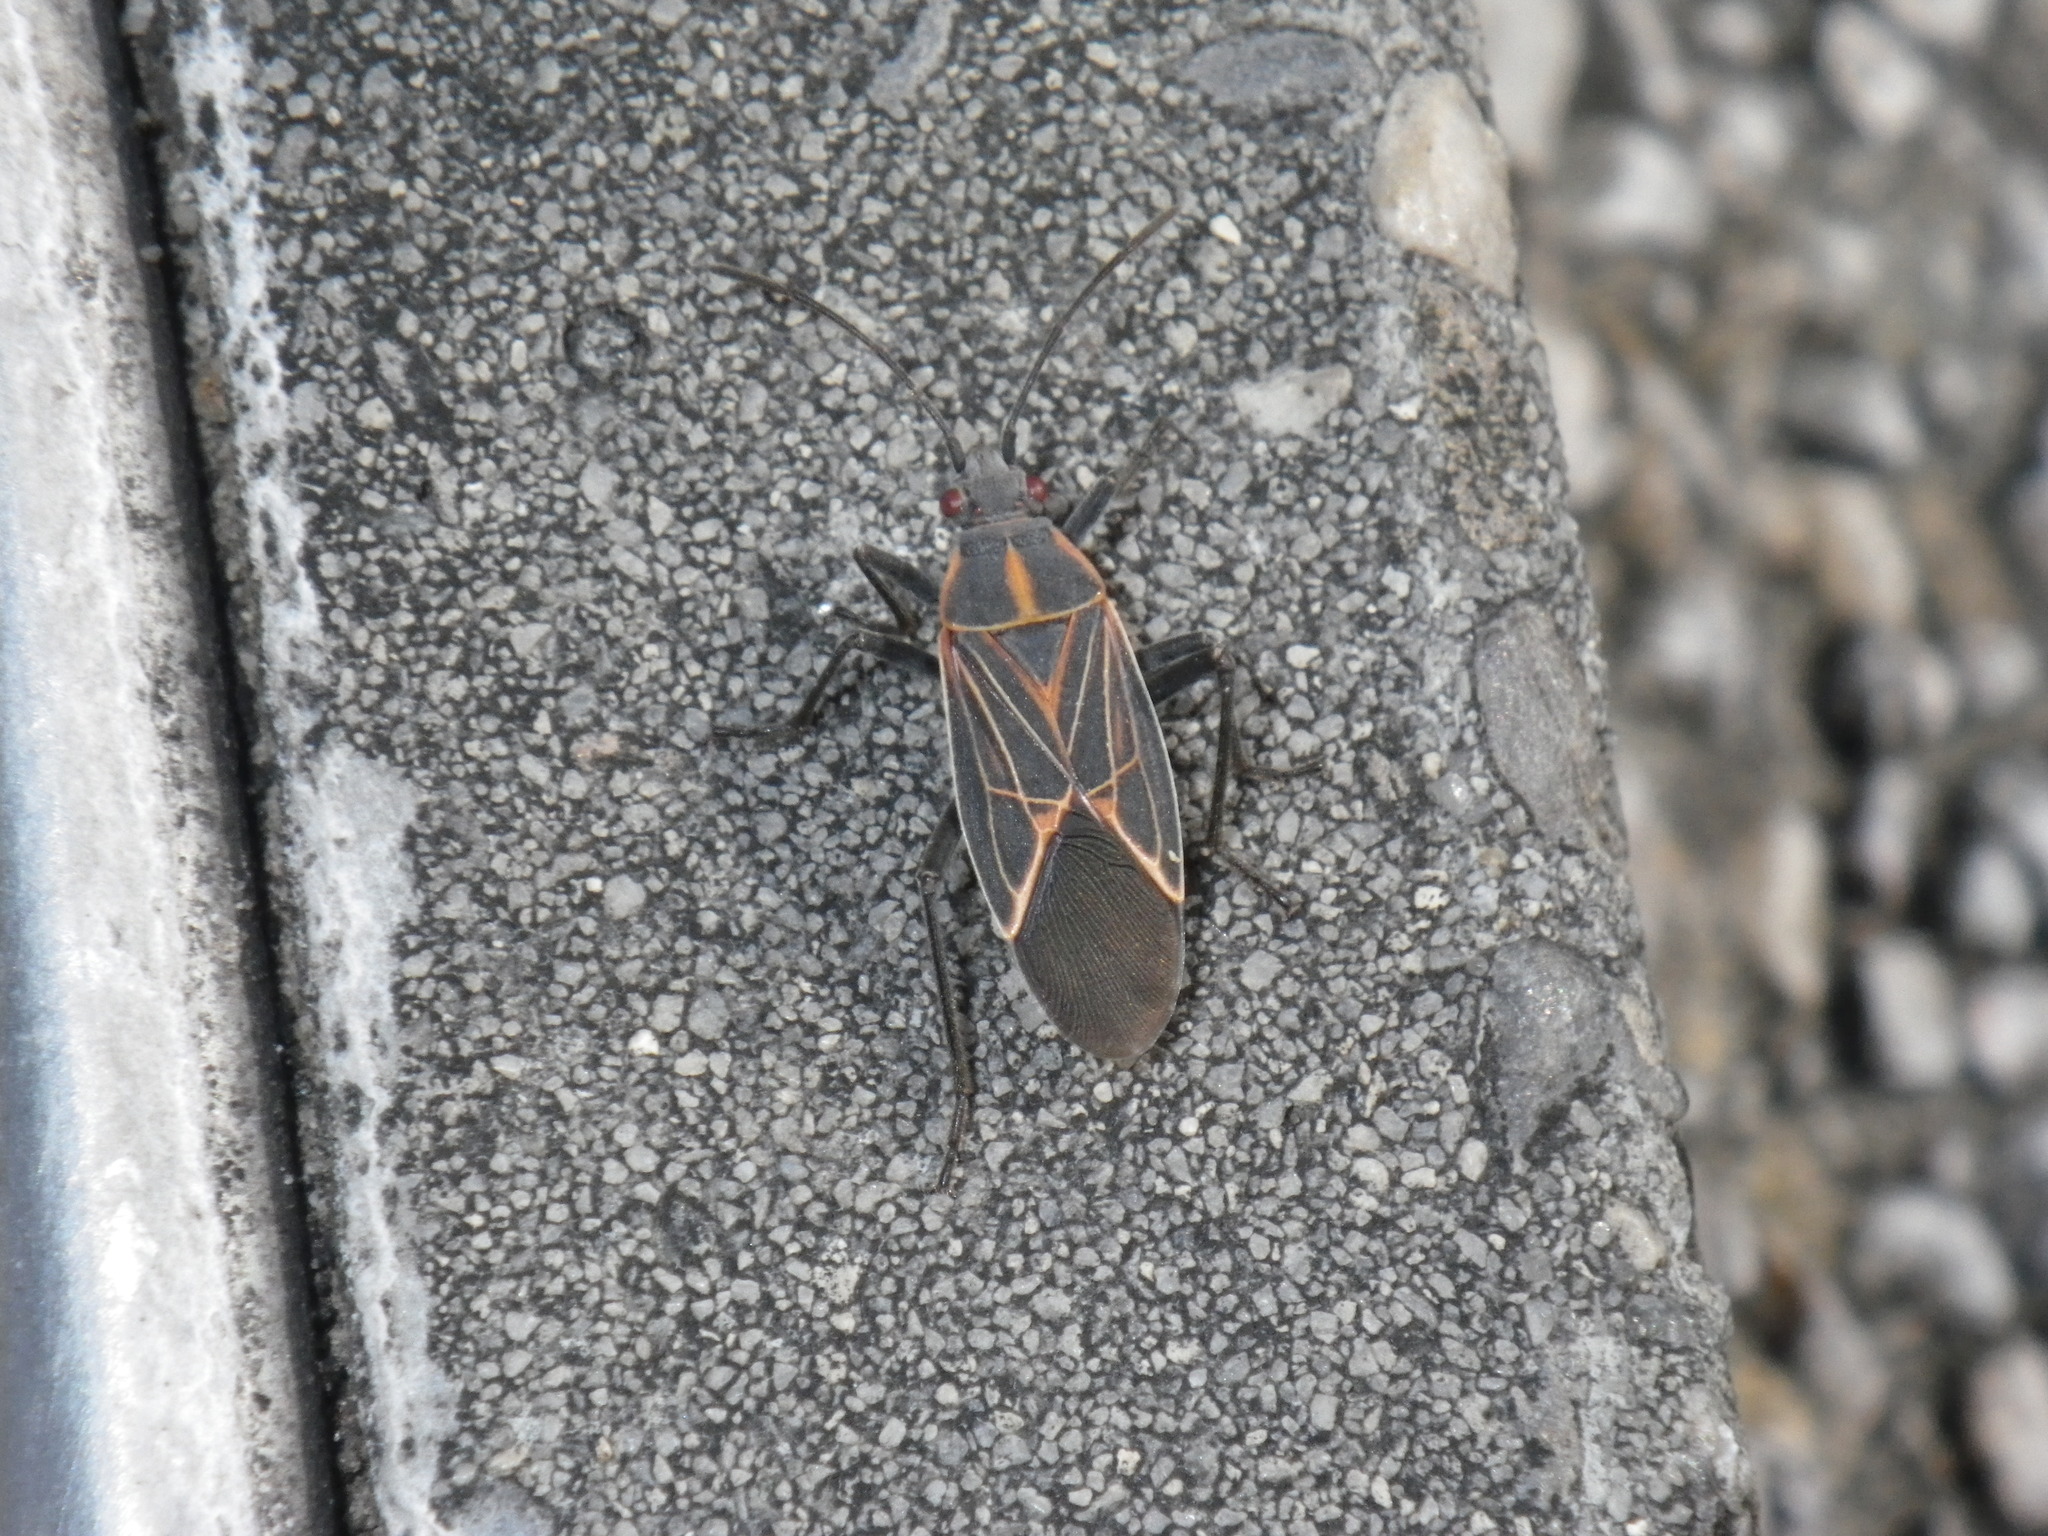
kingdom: Animalia
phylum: Arthropoda
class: Insecta
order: Hemiptera
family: Rhopalidae
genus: Boisea
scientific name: Boisea rubrolineata
